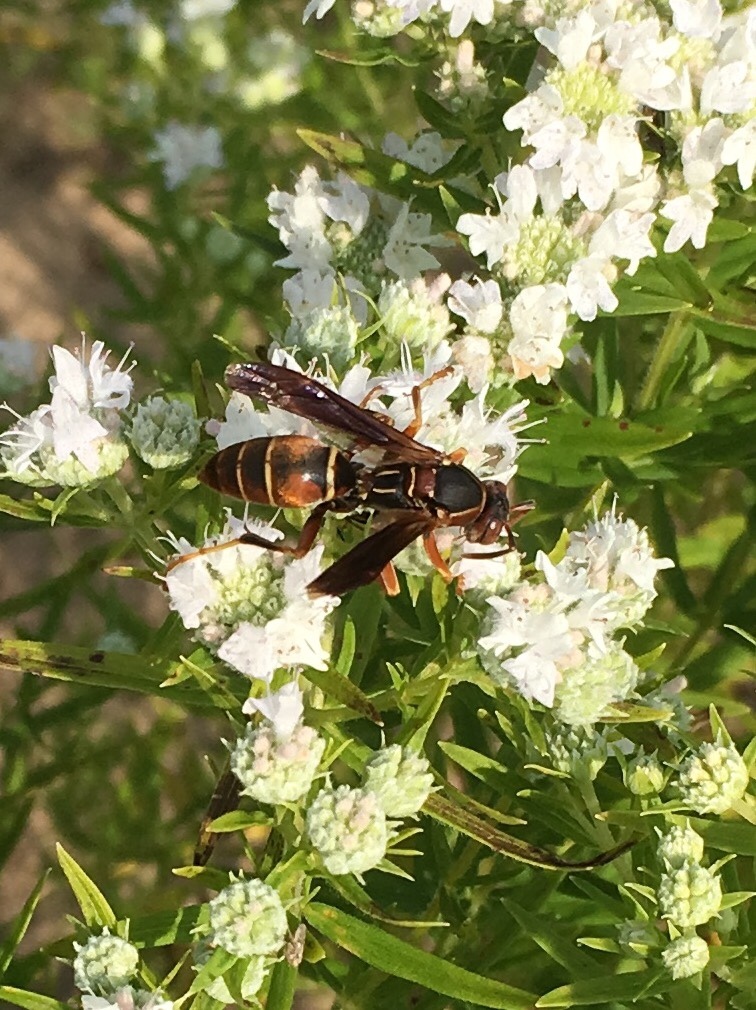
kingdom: Animalia
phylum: Arthropoda
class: Insecta
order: Hymenoptera
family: Eumenidae
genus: Polistes
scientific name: Polistes fuscatus
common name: Dark paper wasp
